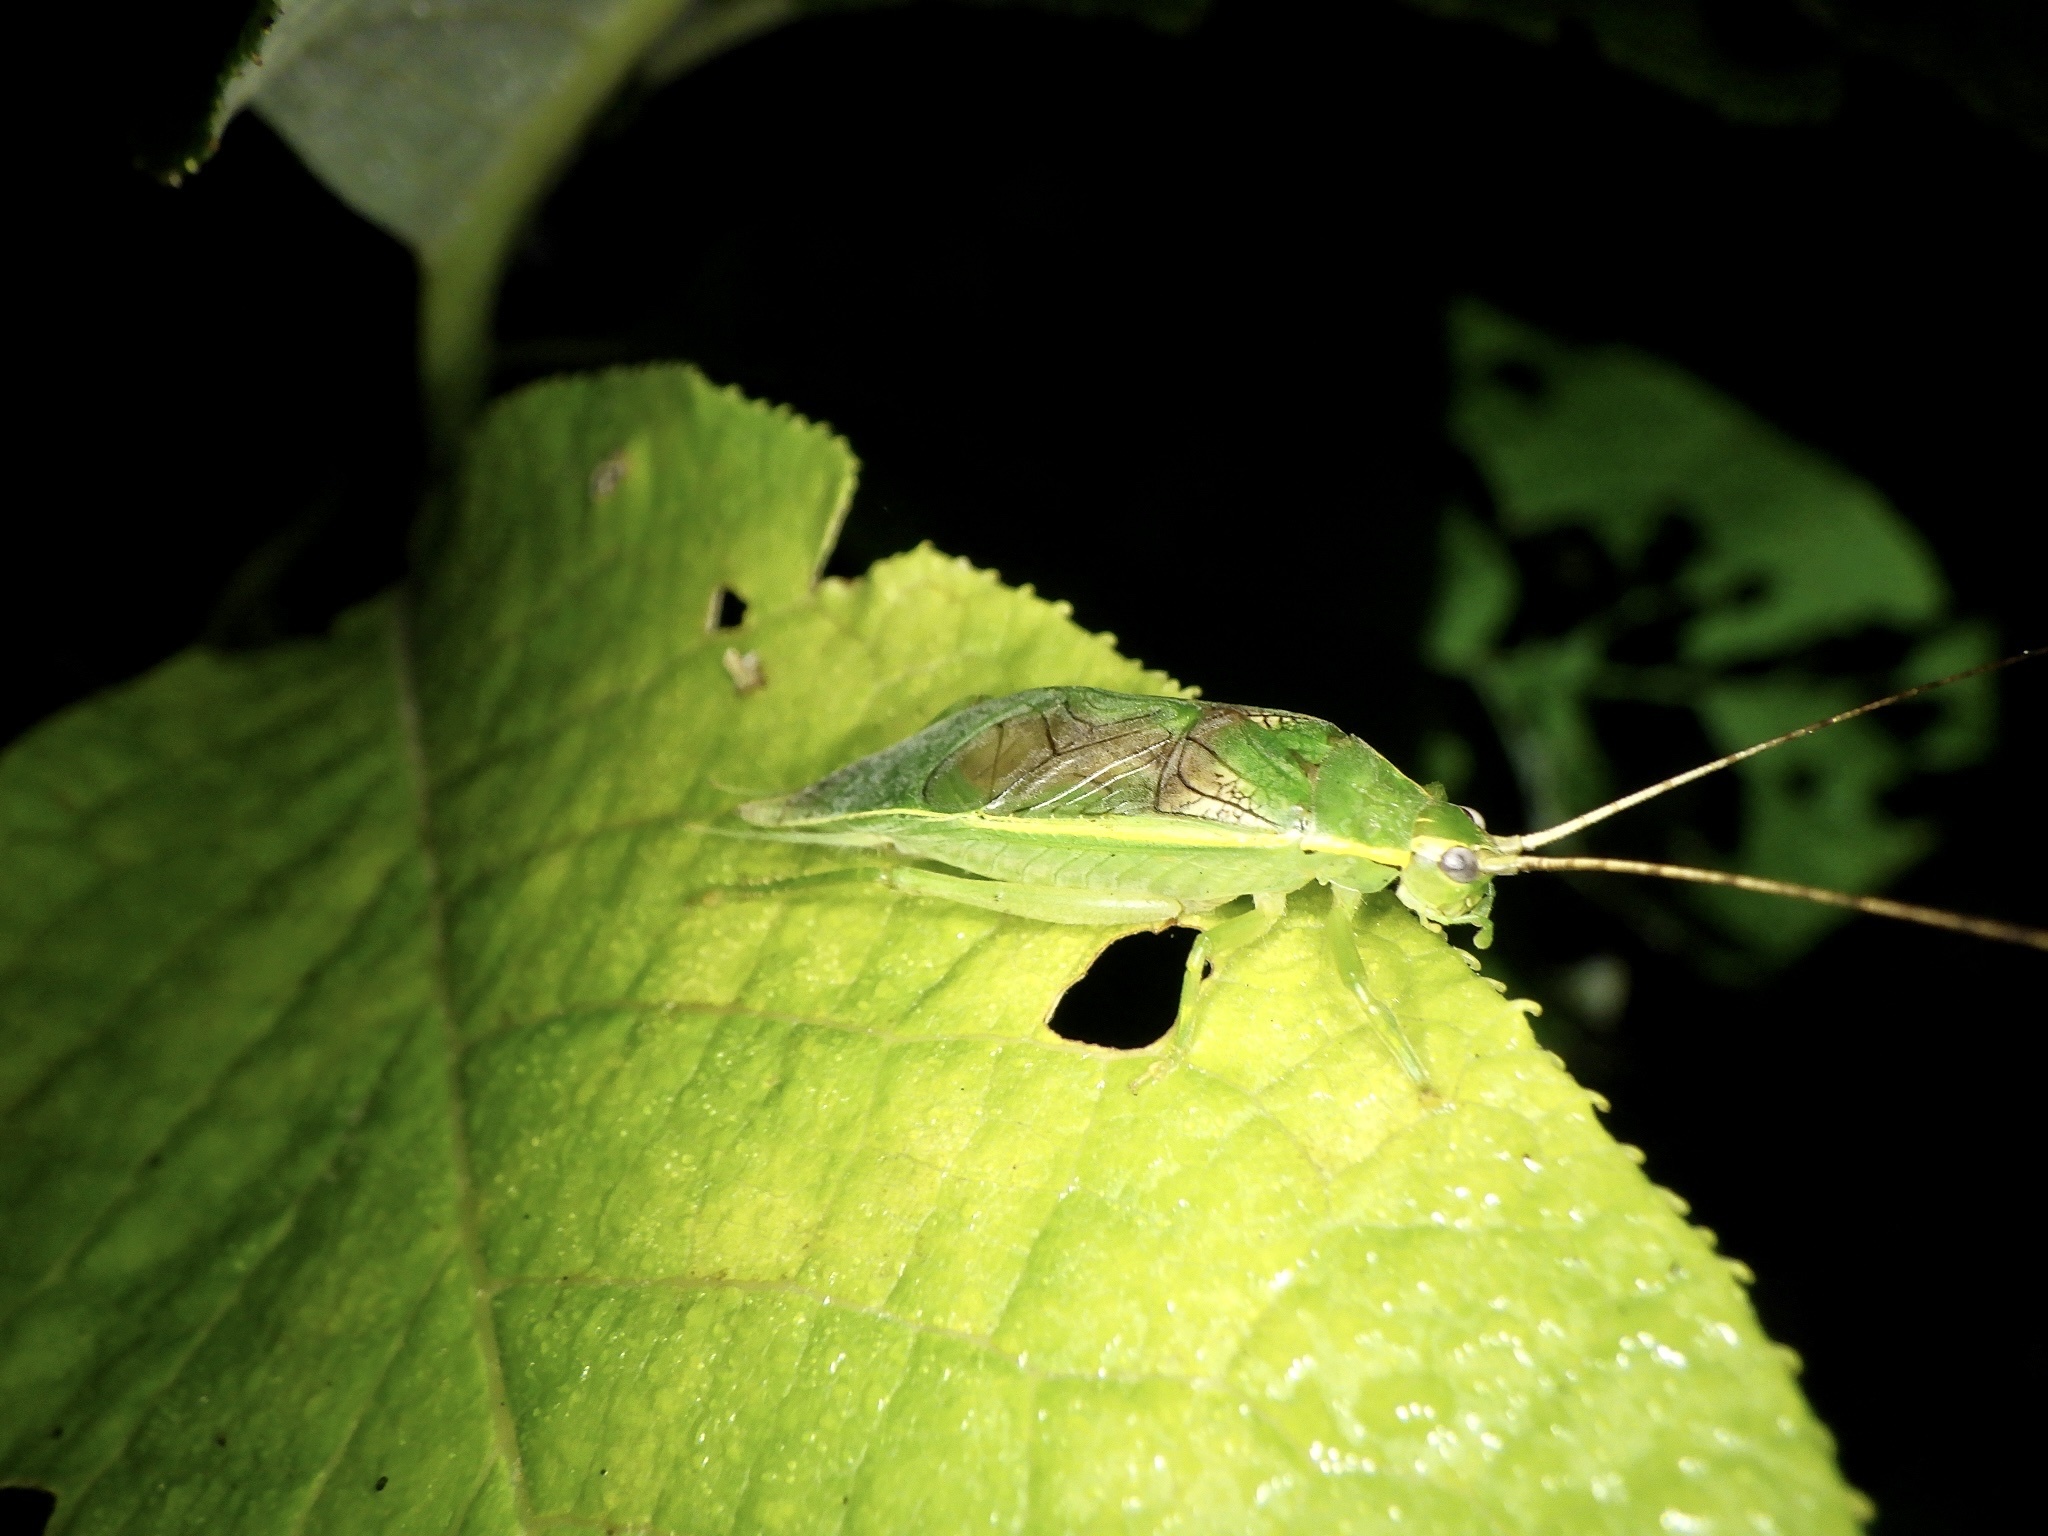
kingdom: Animalia
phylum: Arthropoda
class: Insecta
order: Orthoptera
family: Gryllidae
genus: Truljalia
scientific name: Truljalia hibinonis
